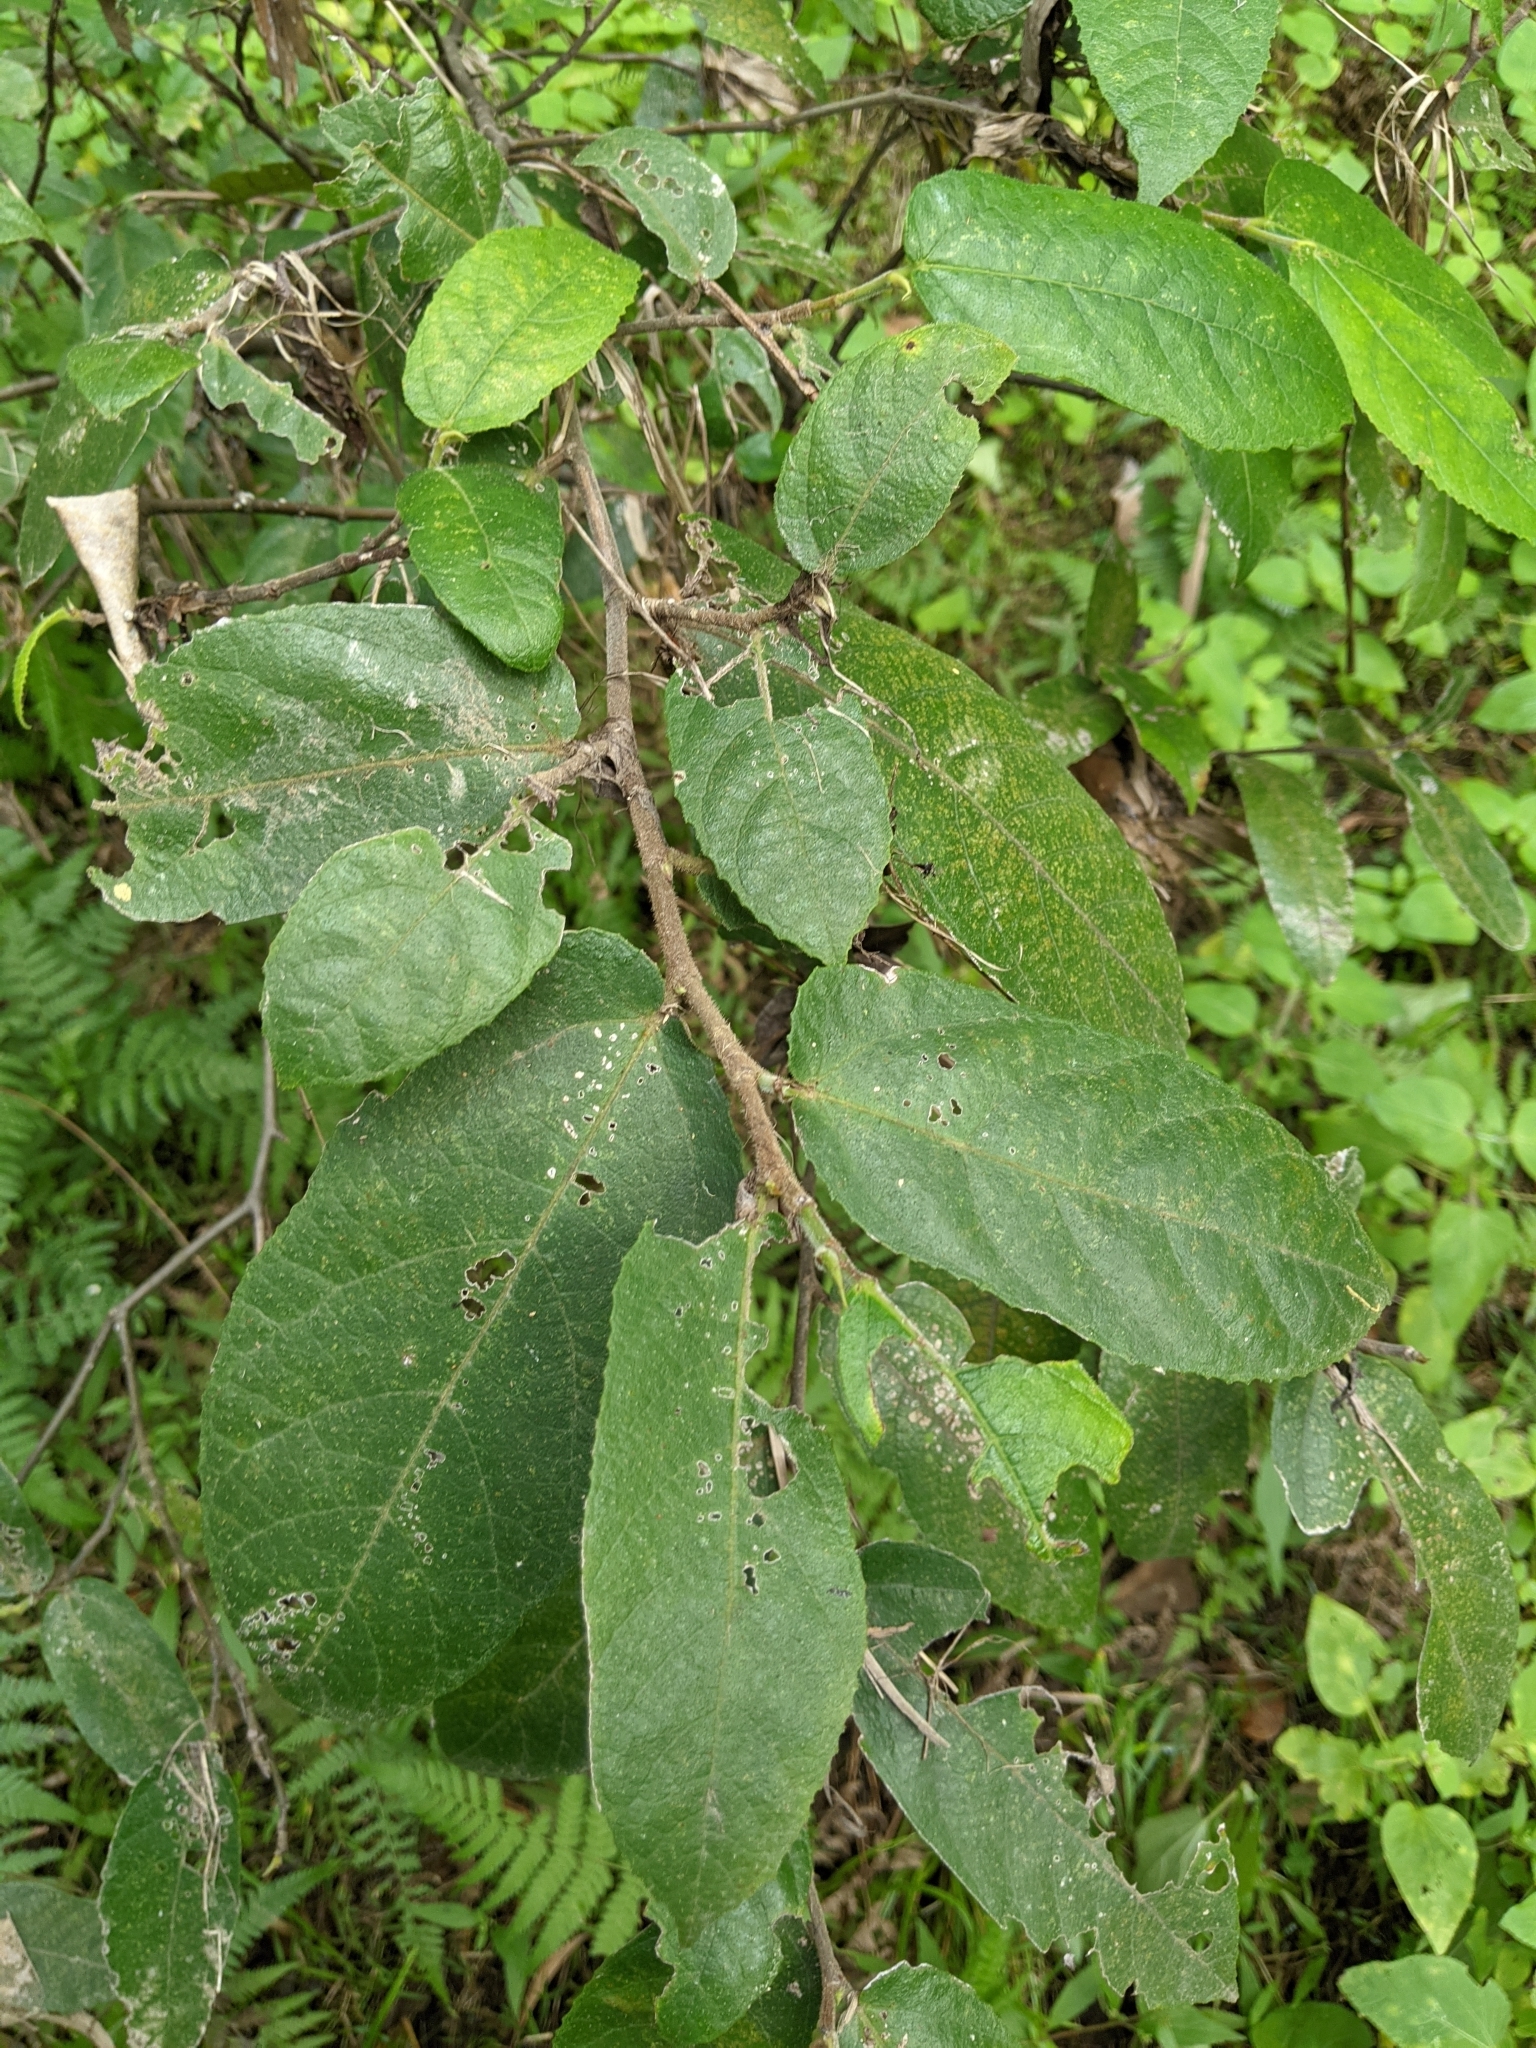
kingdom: Plantae
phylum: Tracheophyta
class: Magnoliopsida
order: Rosales
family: Moraceae
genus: Ficus
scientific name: Ficus coronata
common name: Creek sandpaper fig
